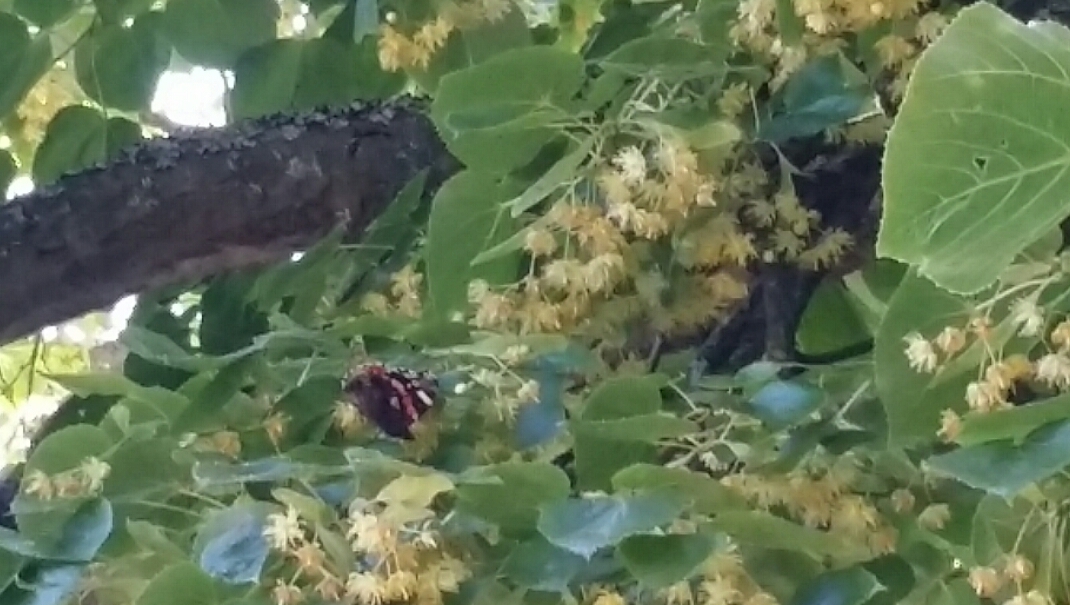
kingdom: Animalia
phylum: Arthropoda
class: Insecta
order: Lepidoptera
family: Nymphalidae
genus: Vanessa
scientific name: Vanessa atalanta
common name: Red admiral
